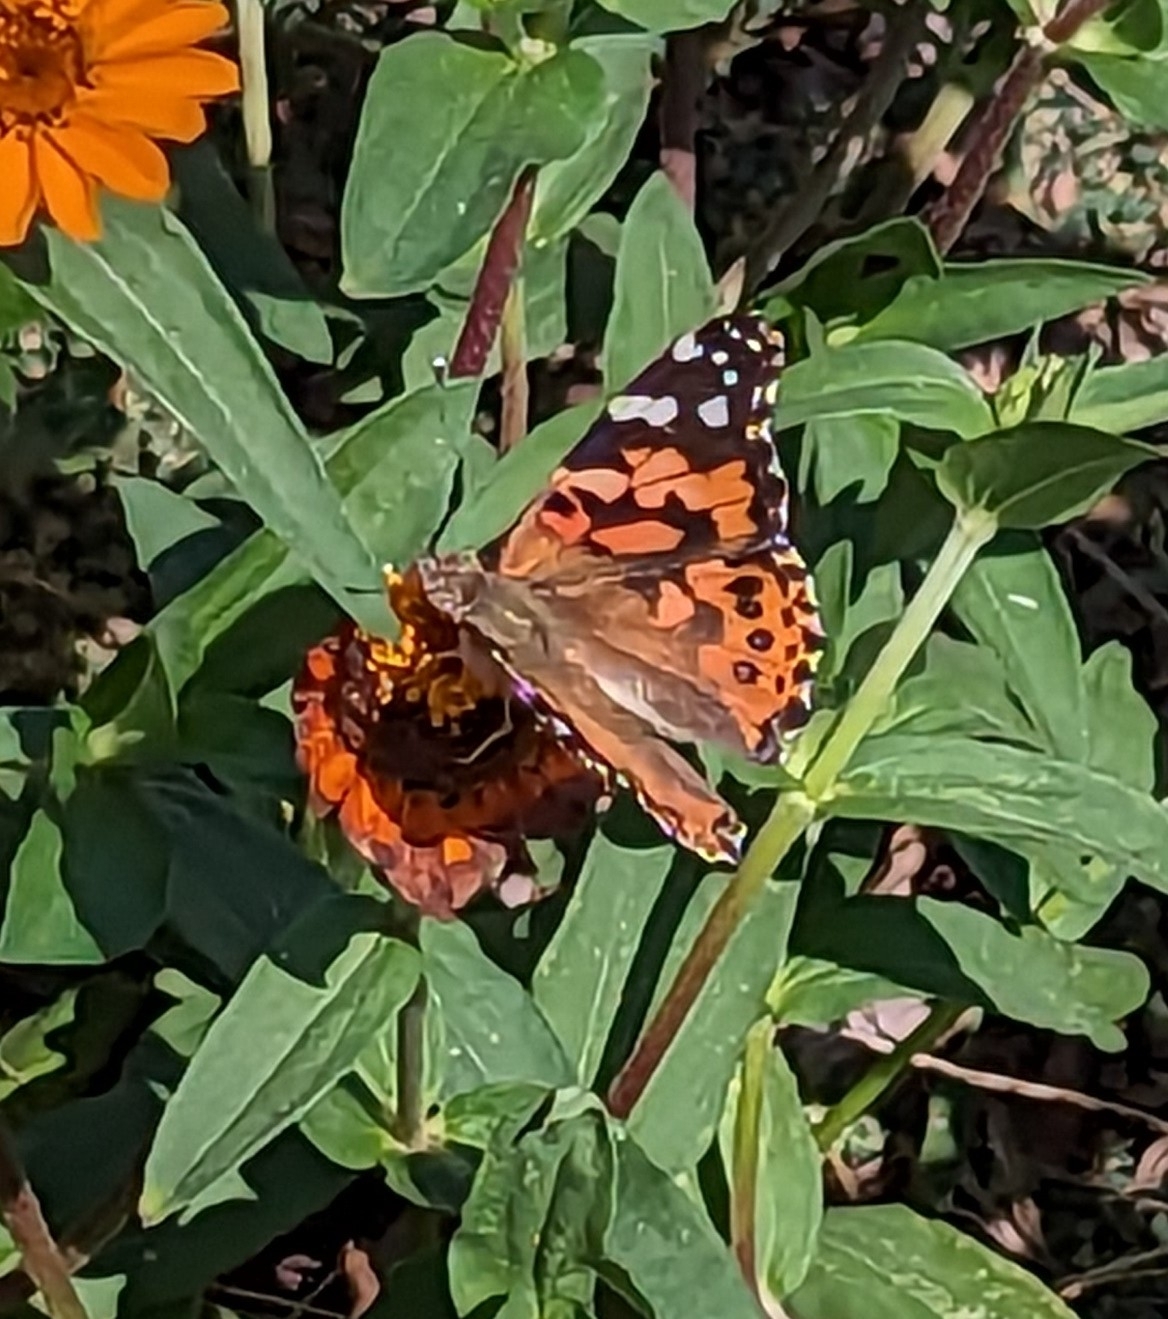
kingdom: Animalia
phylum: Arthropoda
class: Insecta
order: Lepidoptera
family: Nymphalidae
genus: Vanessa
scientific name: Vanessa cardui
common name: Painted lady
